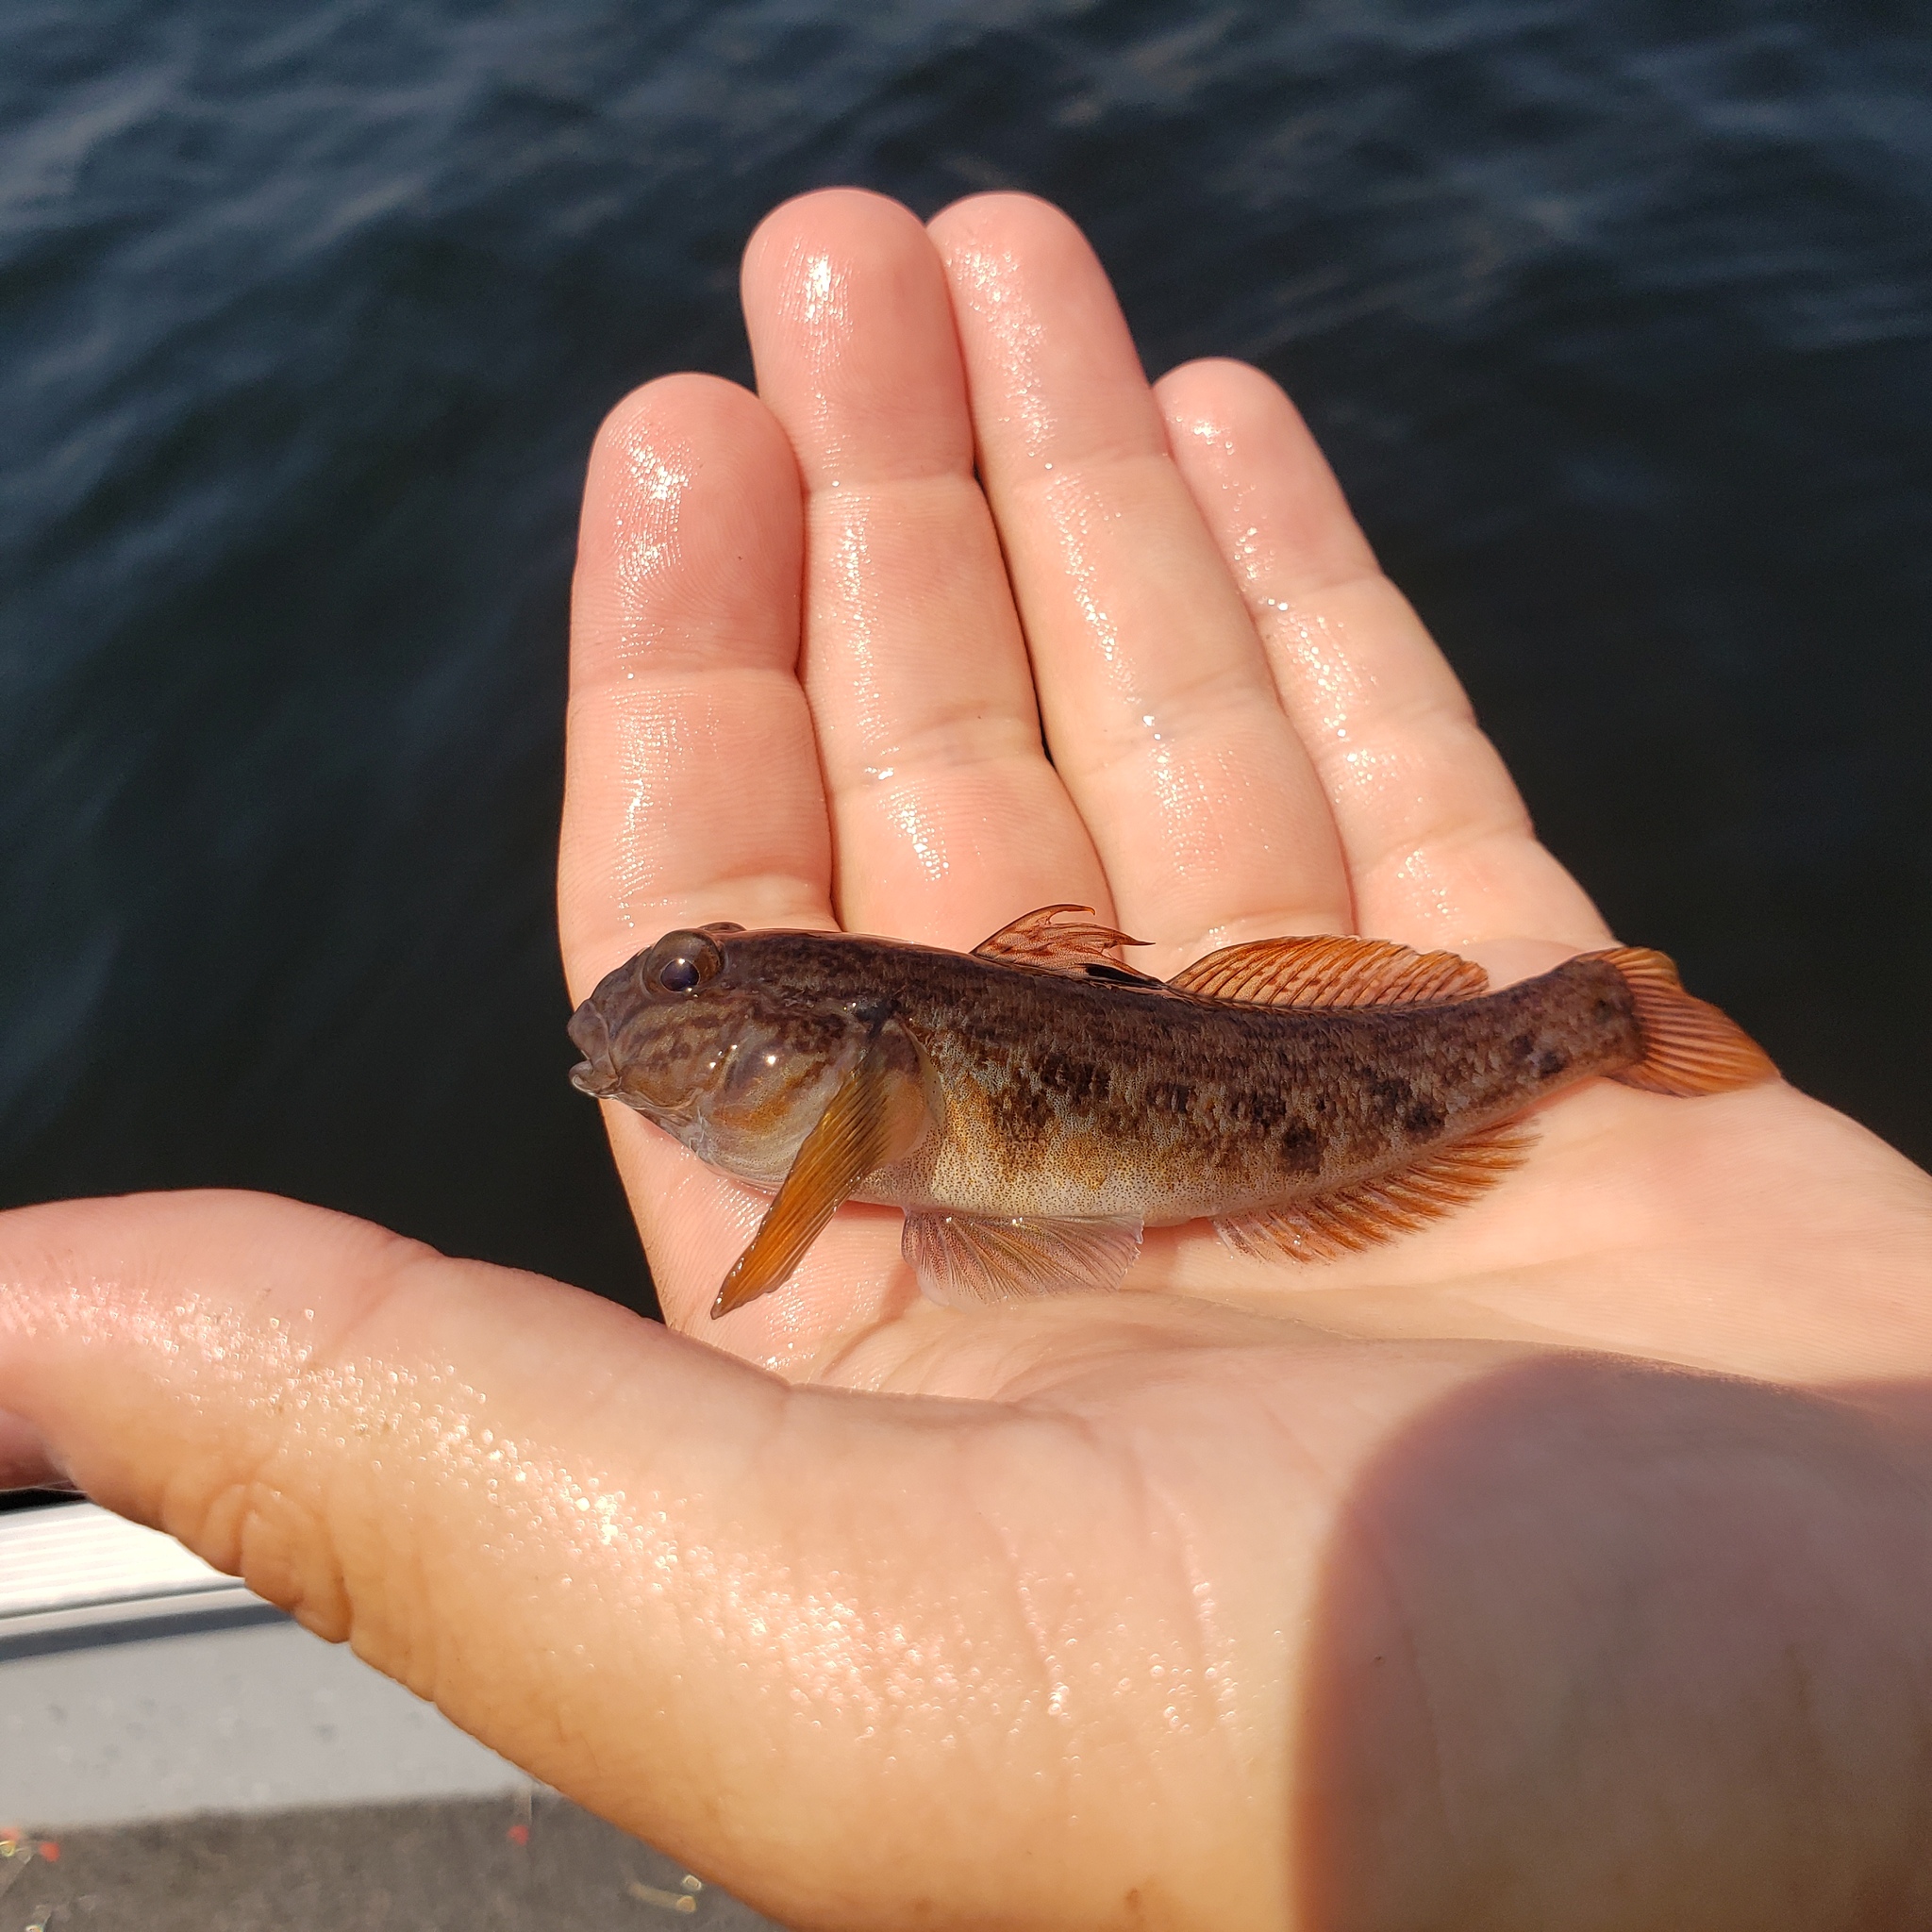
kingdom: Animalia
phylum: Chordata
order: Perciformes
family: Gobiidae
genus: Neogobius
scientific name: Neogobius melanostomus
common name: Round goby
